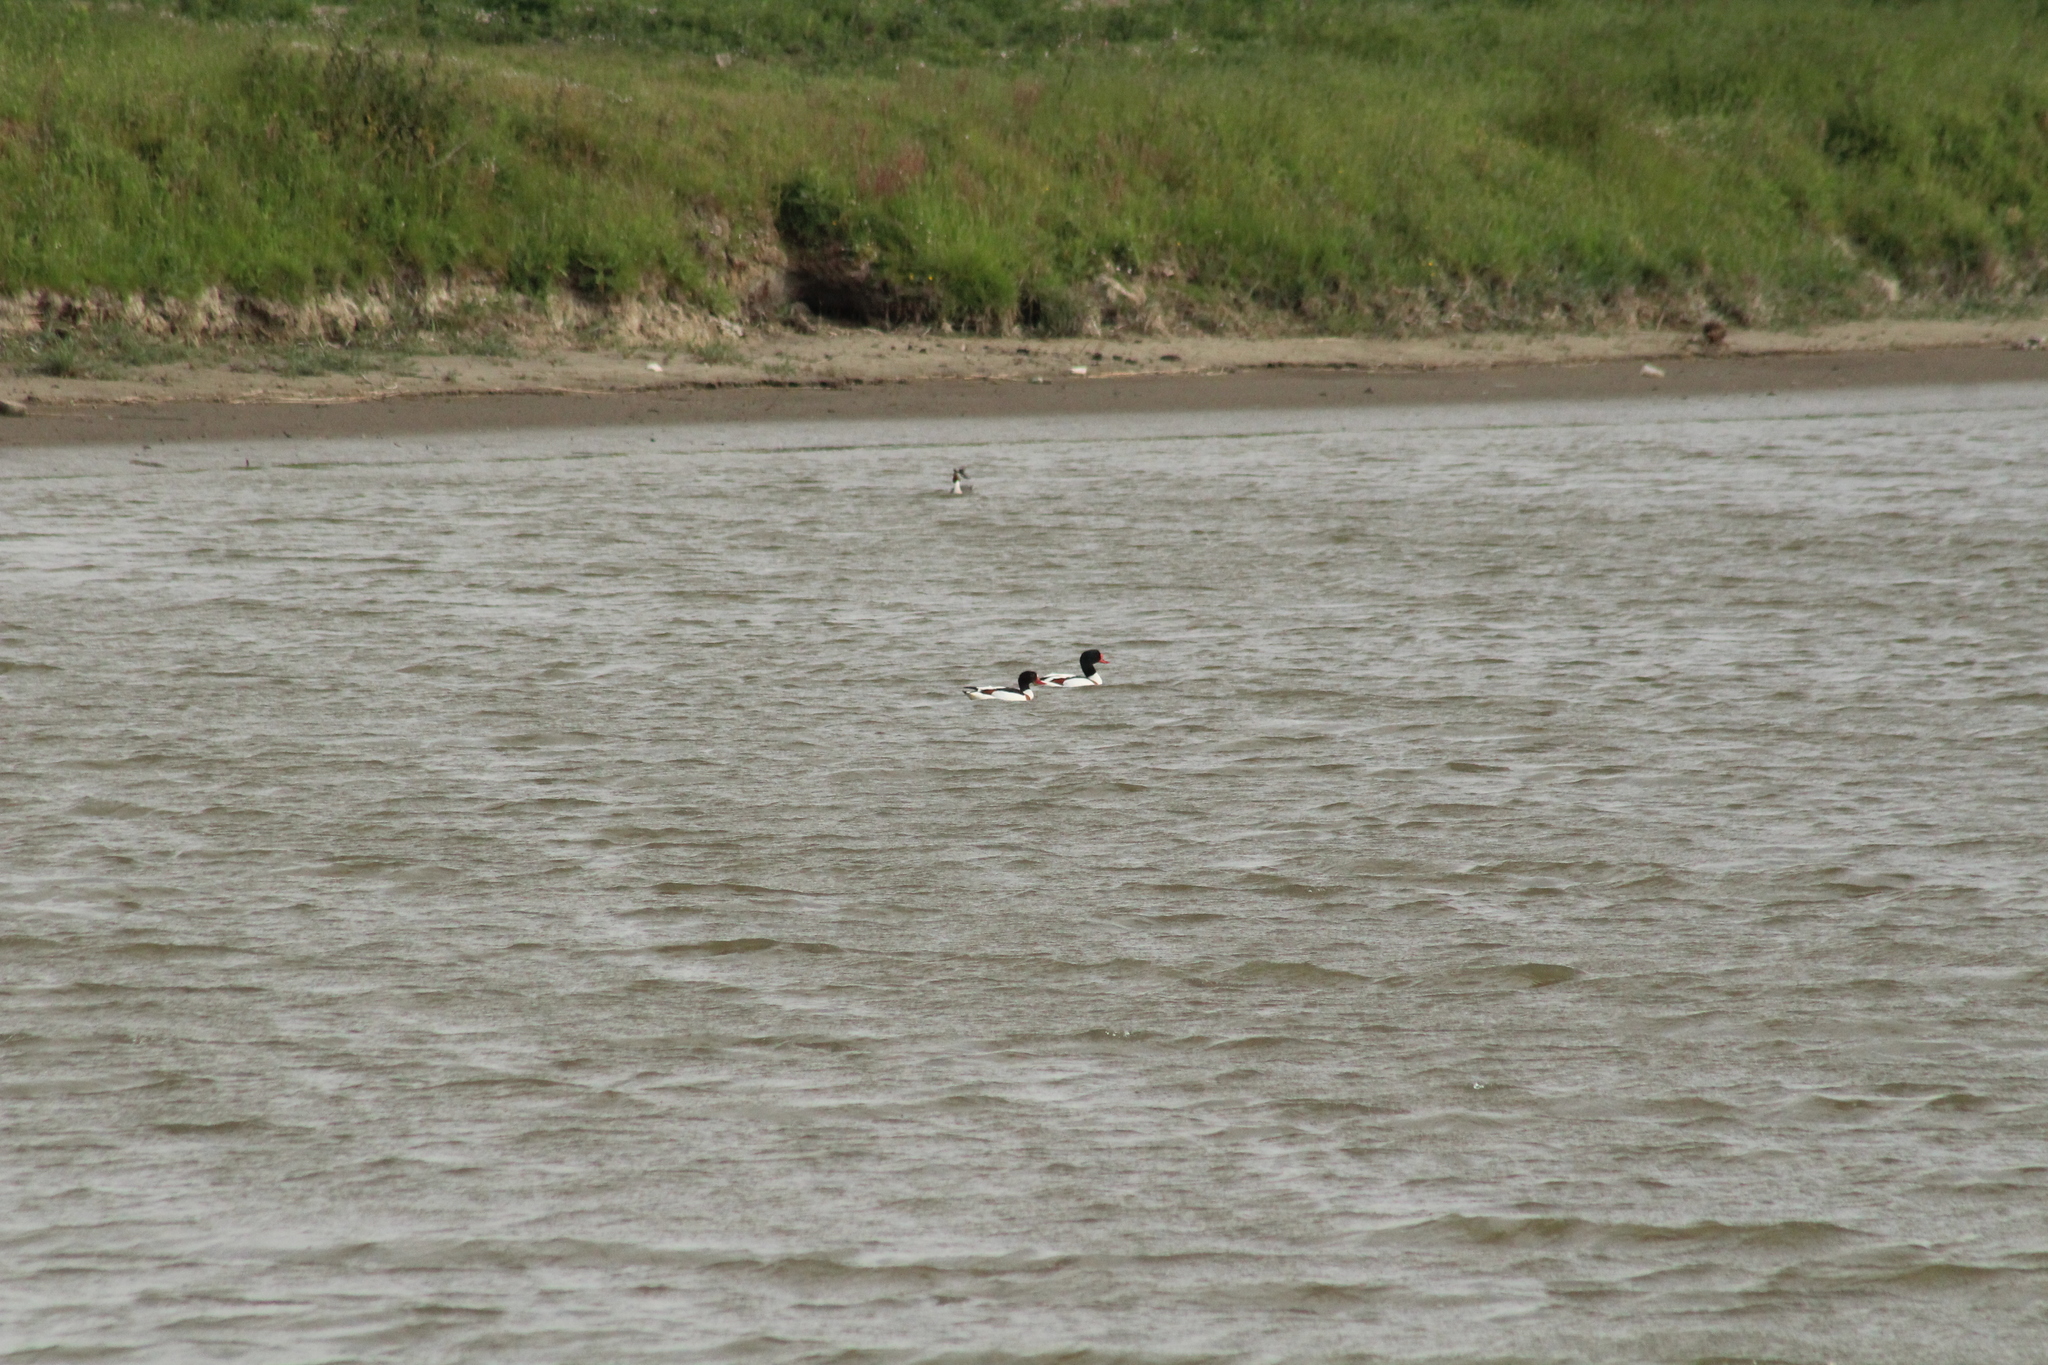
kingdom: Animalia
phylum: Chordata
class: Aves
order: Anseriformes
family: Anatidae
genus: Tadorna
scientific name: Tadorna tadorna
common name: Common shelduck
